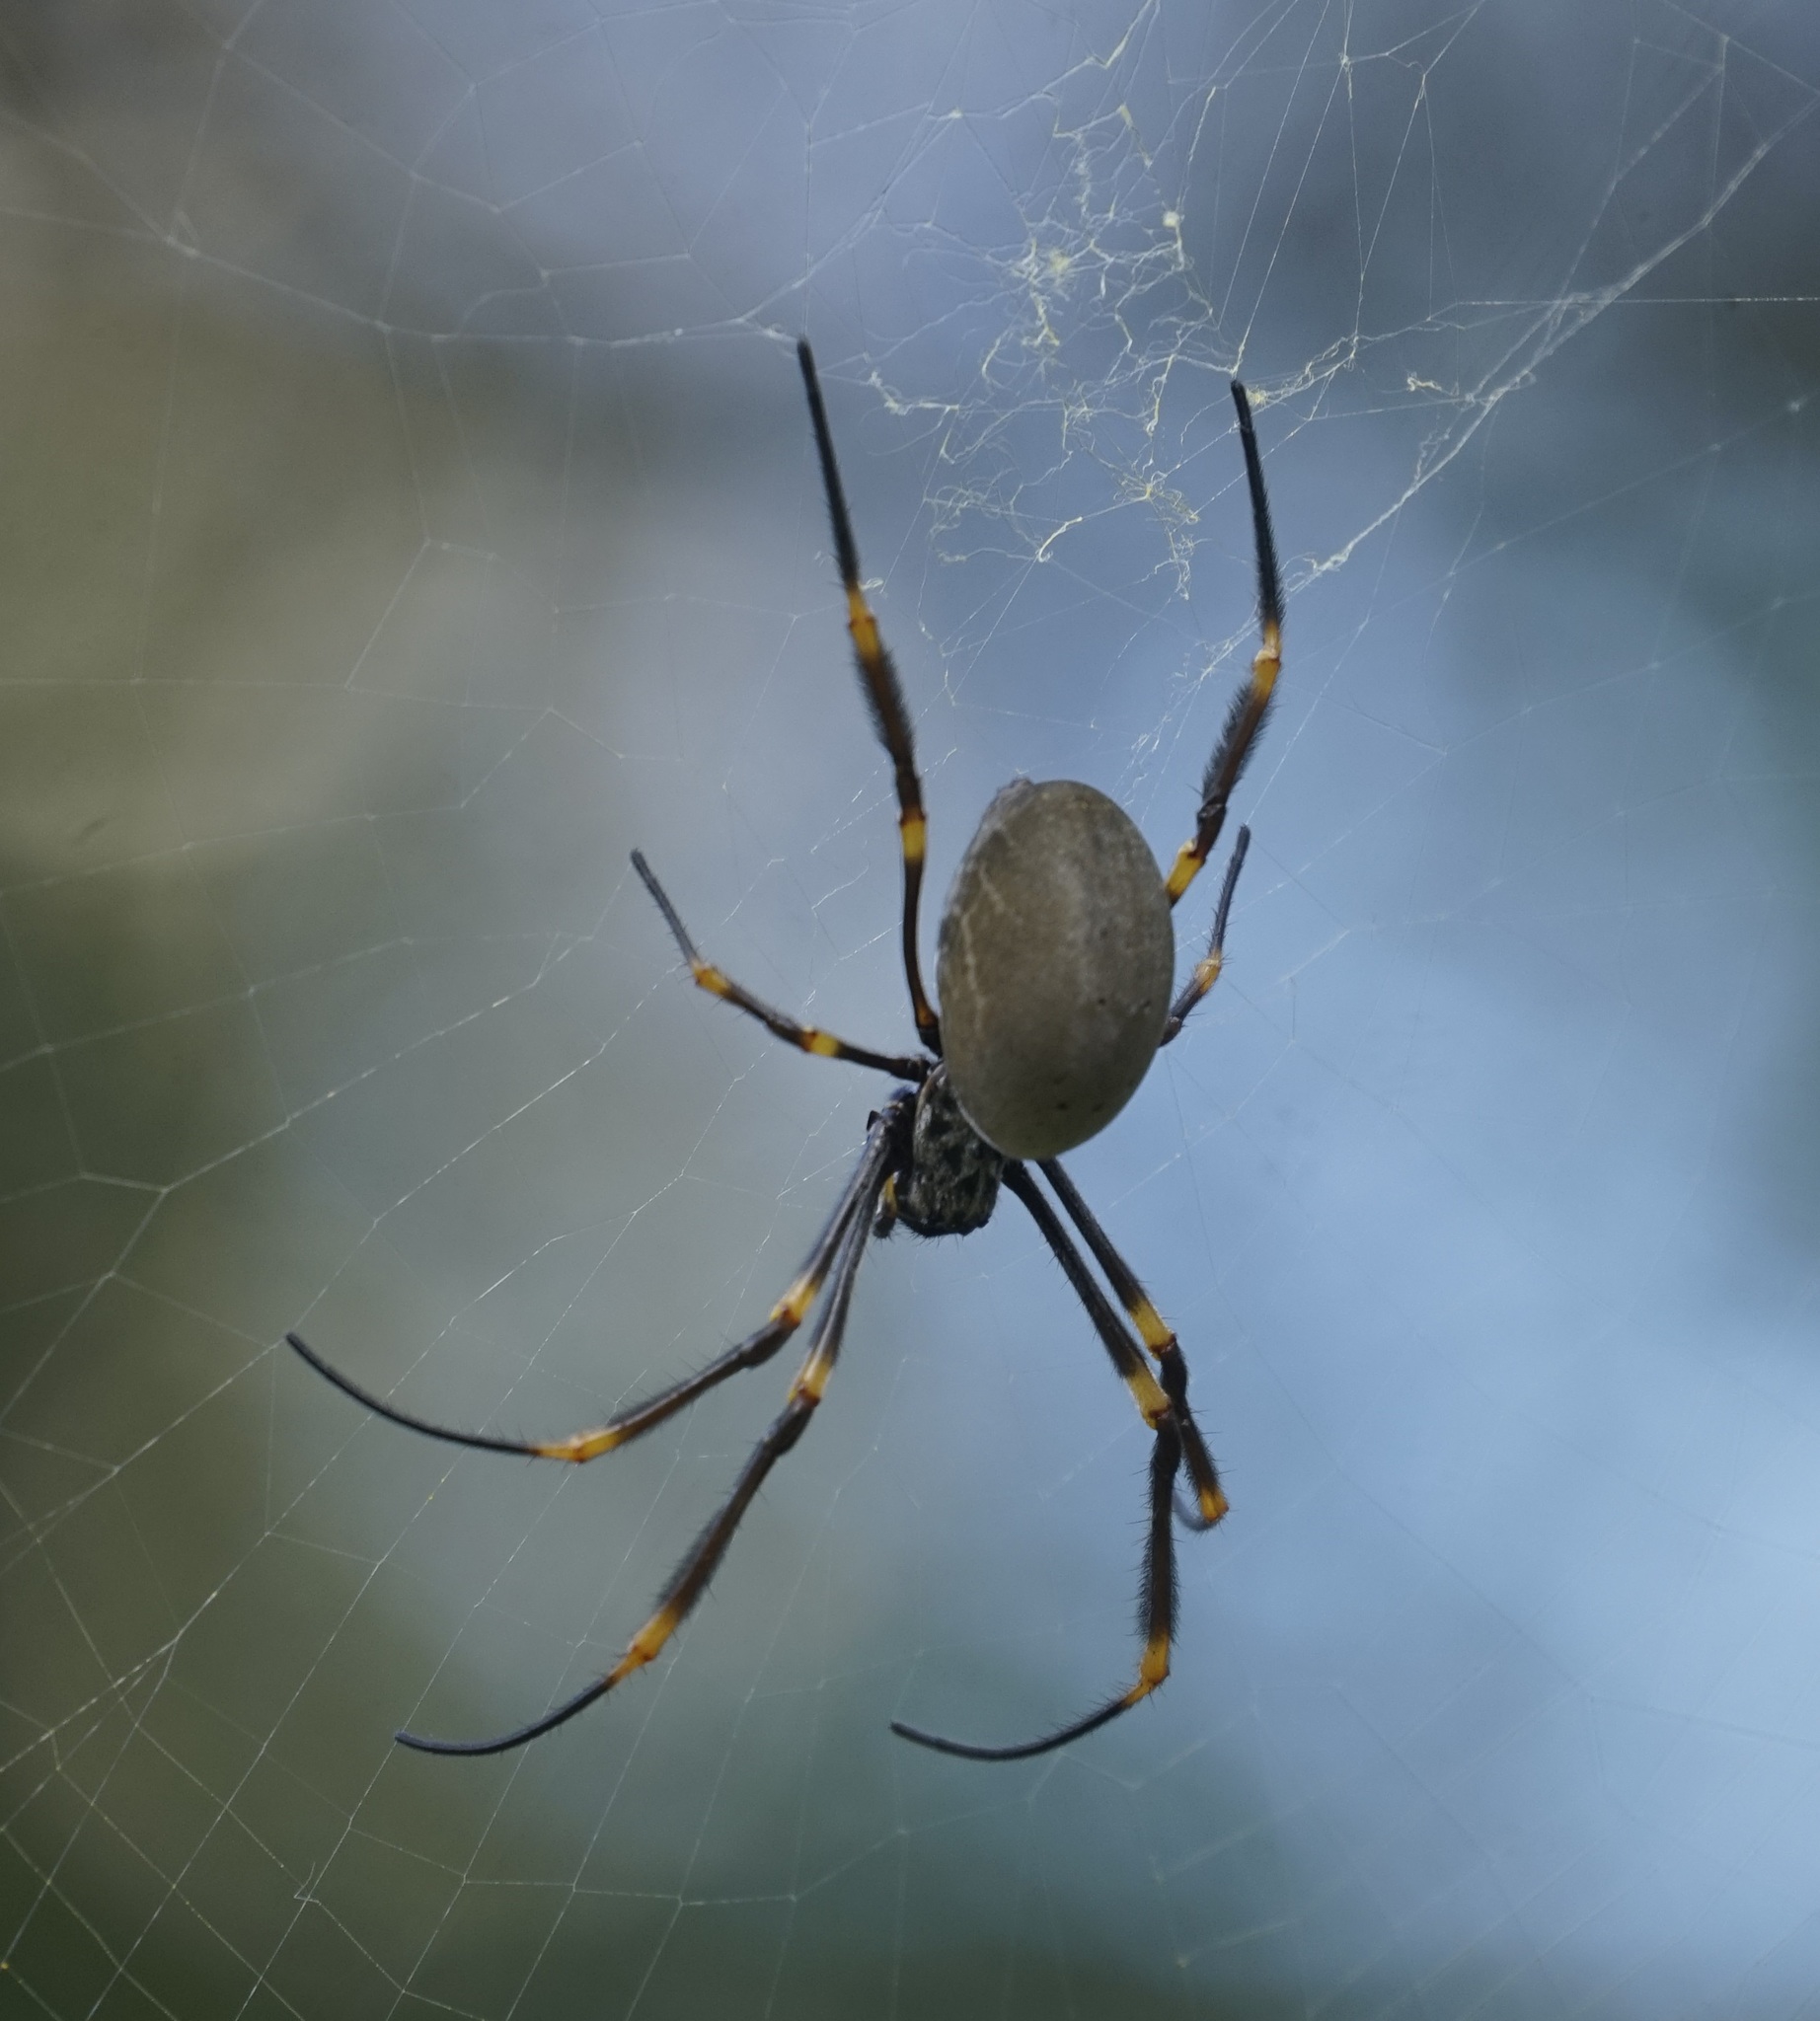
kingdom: Animalia
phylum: Arthropoda
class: Arachnida
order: Araneae
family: Araneidae
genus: Trichonephila
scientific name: Trichonephila plumipes
